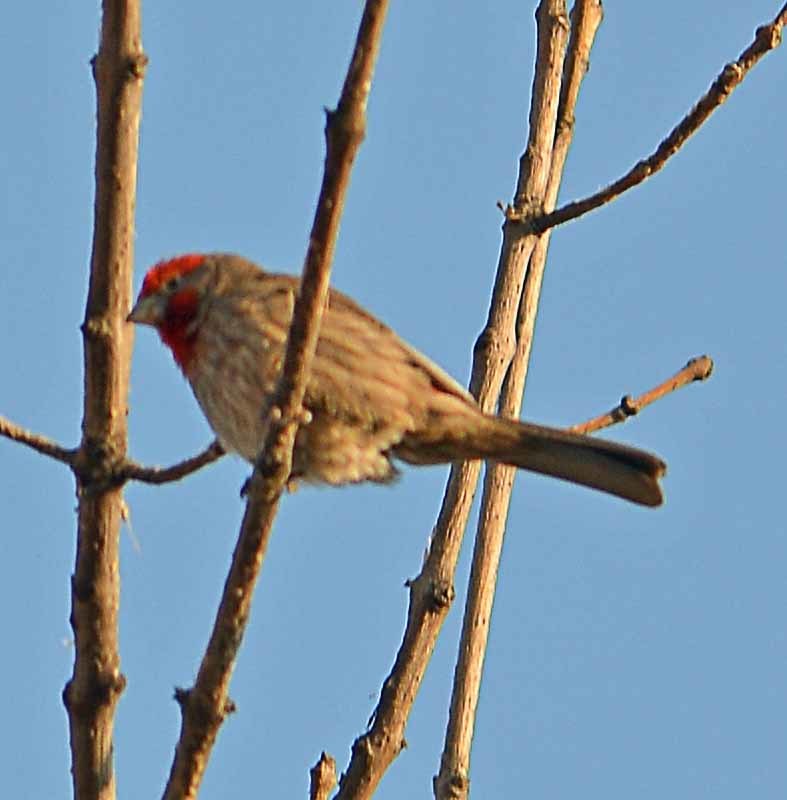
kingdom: Animalia
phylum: Chordata
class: Aves
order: Passeriformes
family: Fringillidae
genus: Haemorhous
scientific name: Haemorhous mexicanus
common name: House finch
